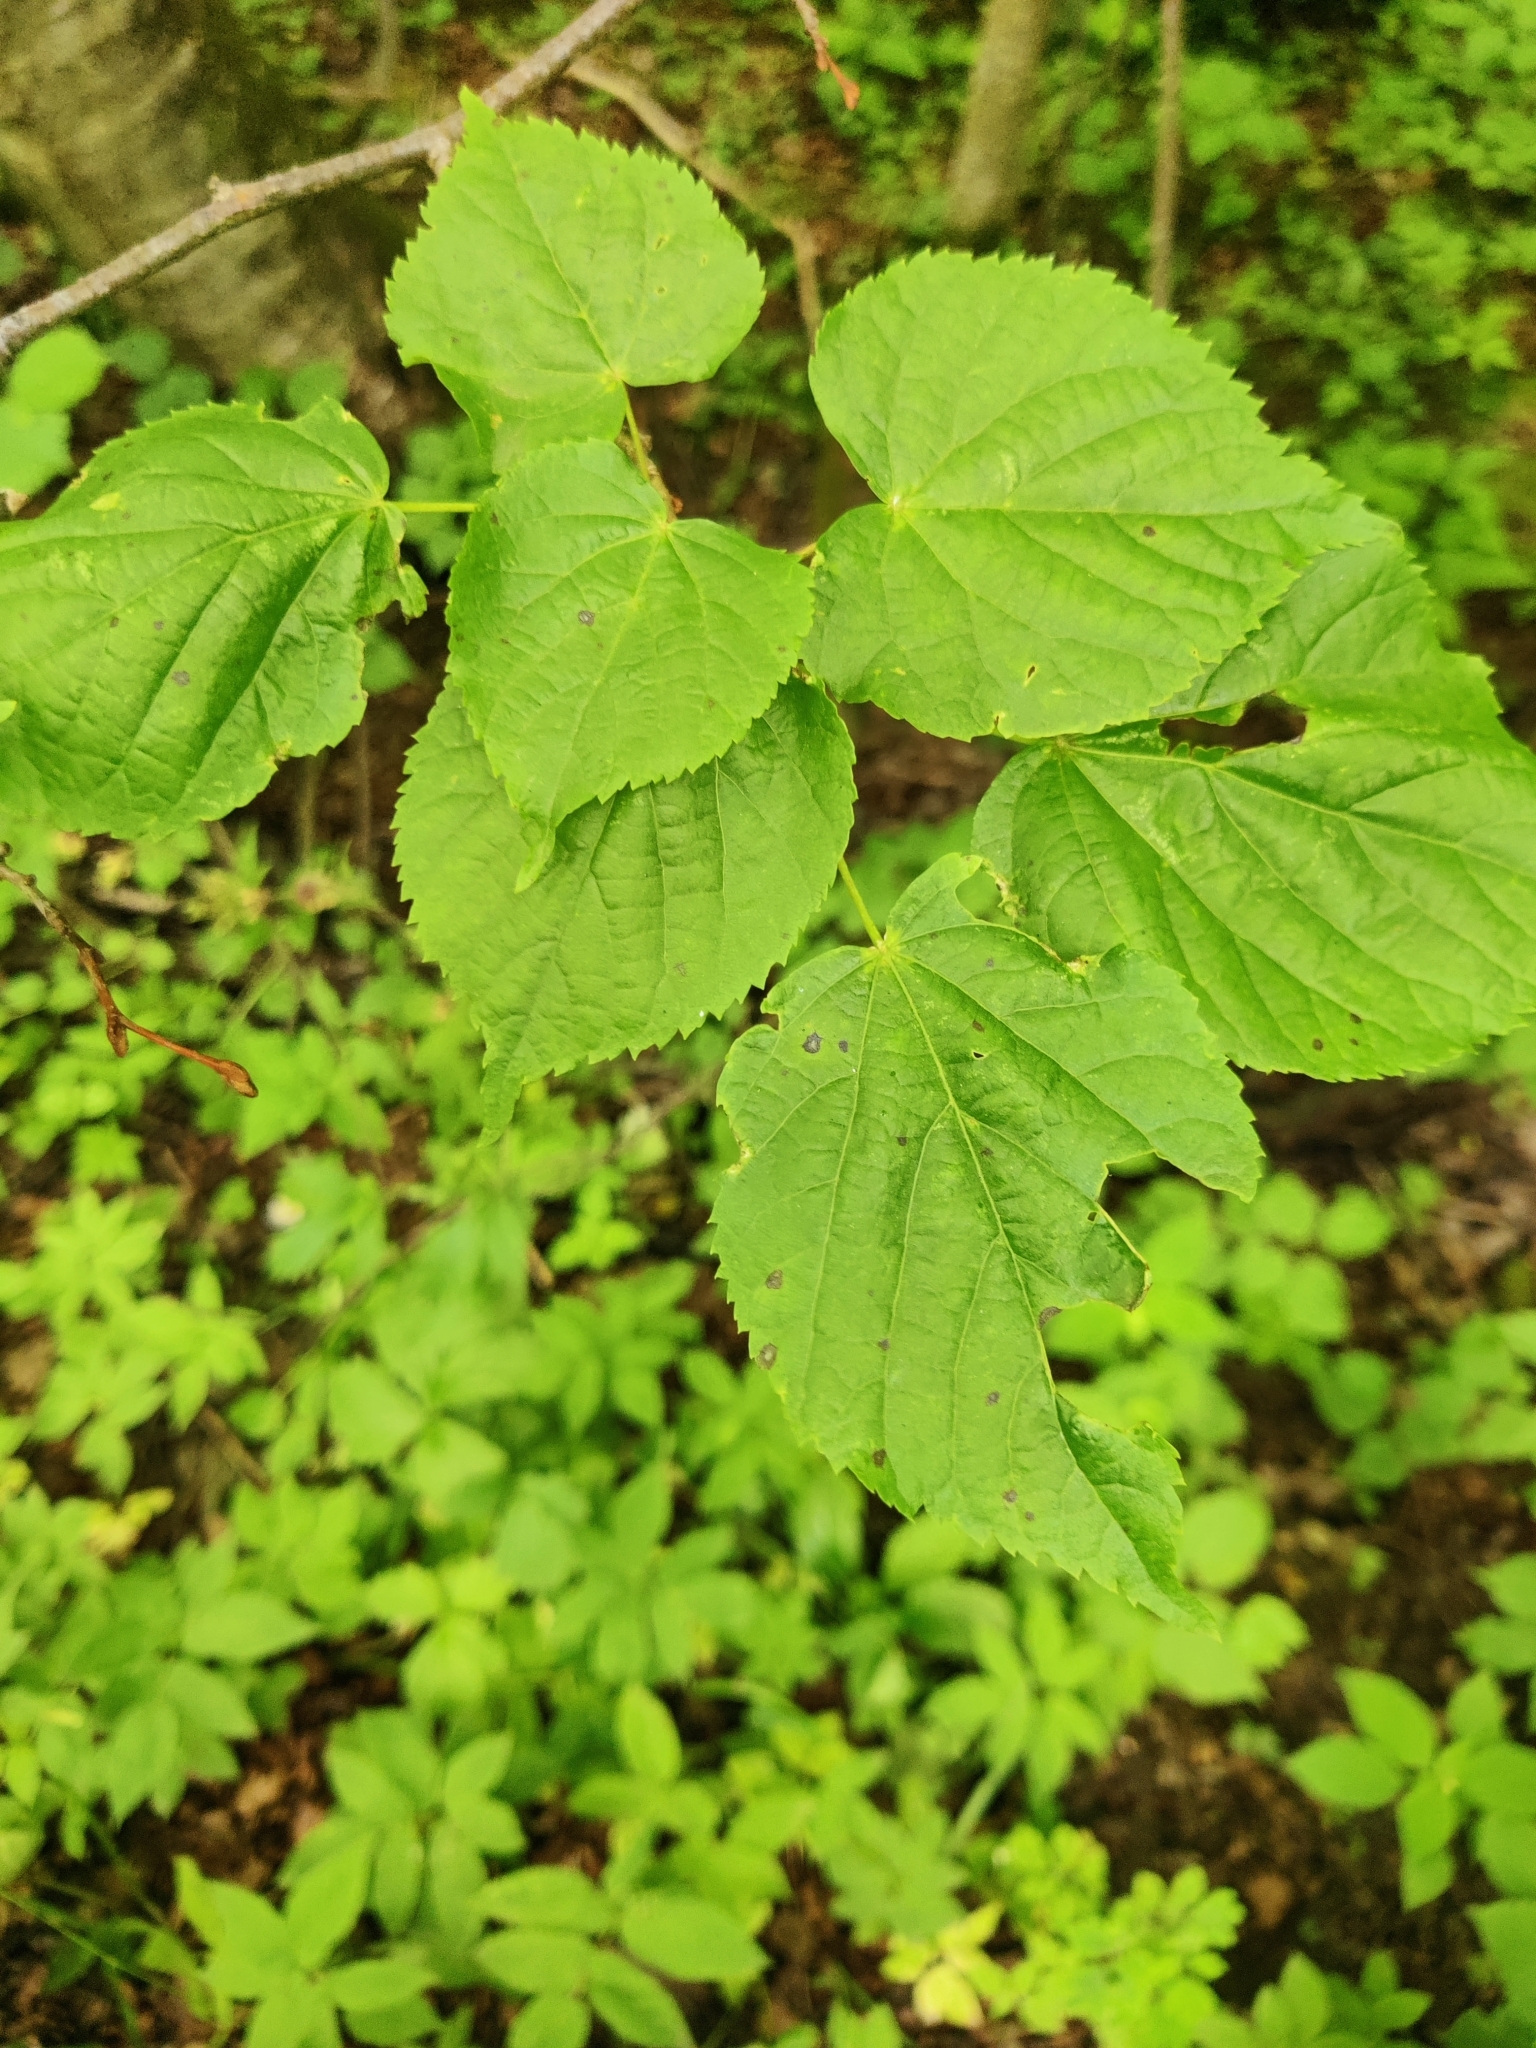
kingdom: Plantae
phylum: Tracheophyta
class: Magnoliopsida
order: Malvales
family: Malvaceae
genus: Tilia
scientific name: Tilia cordata
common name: Small-leaved lime
